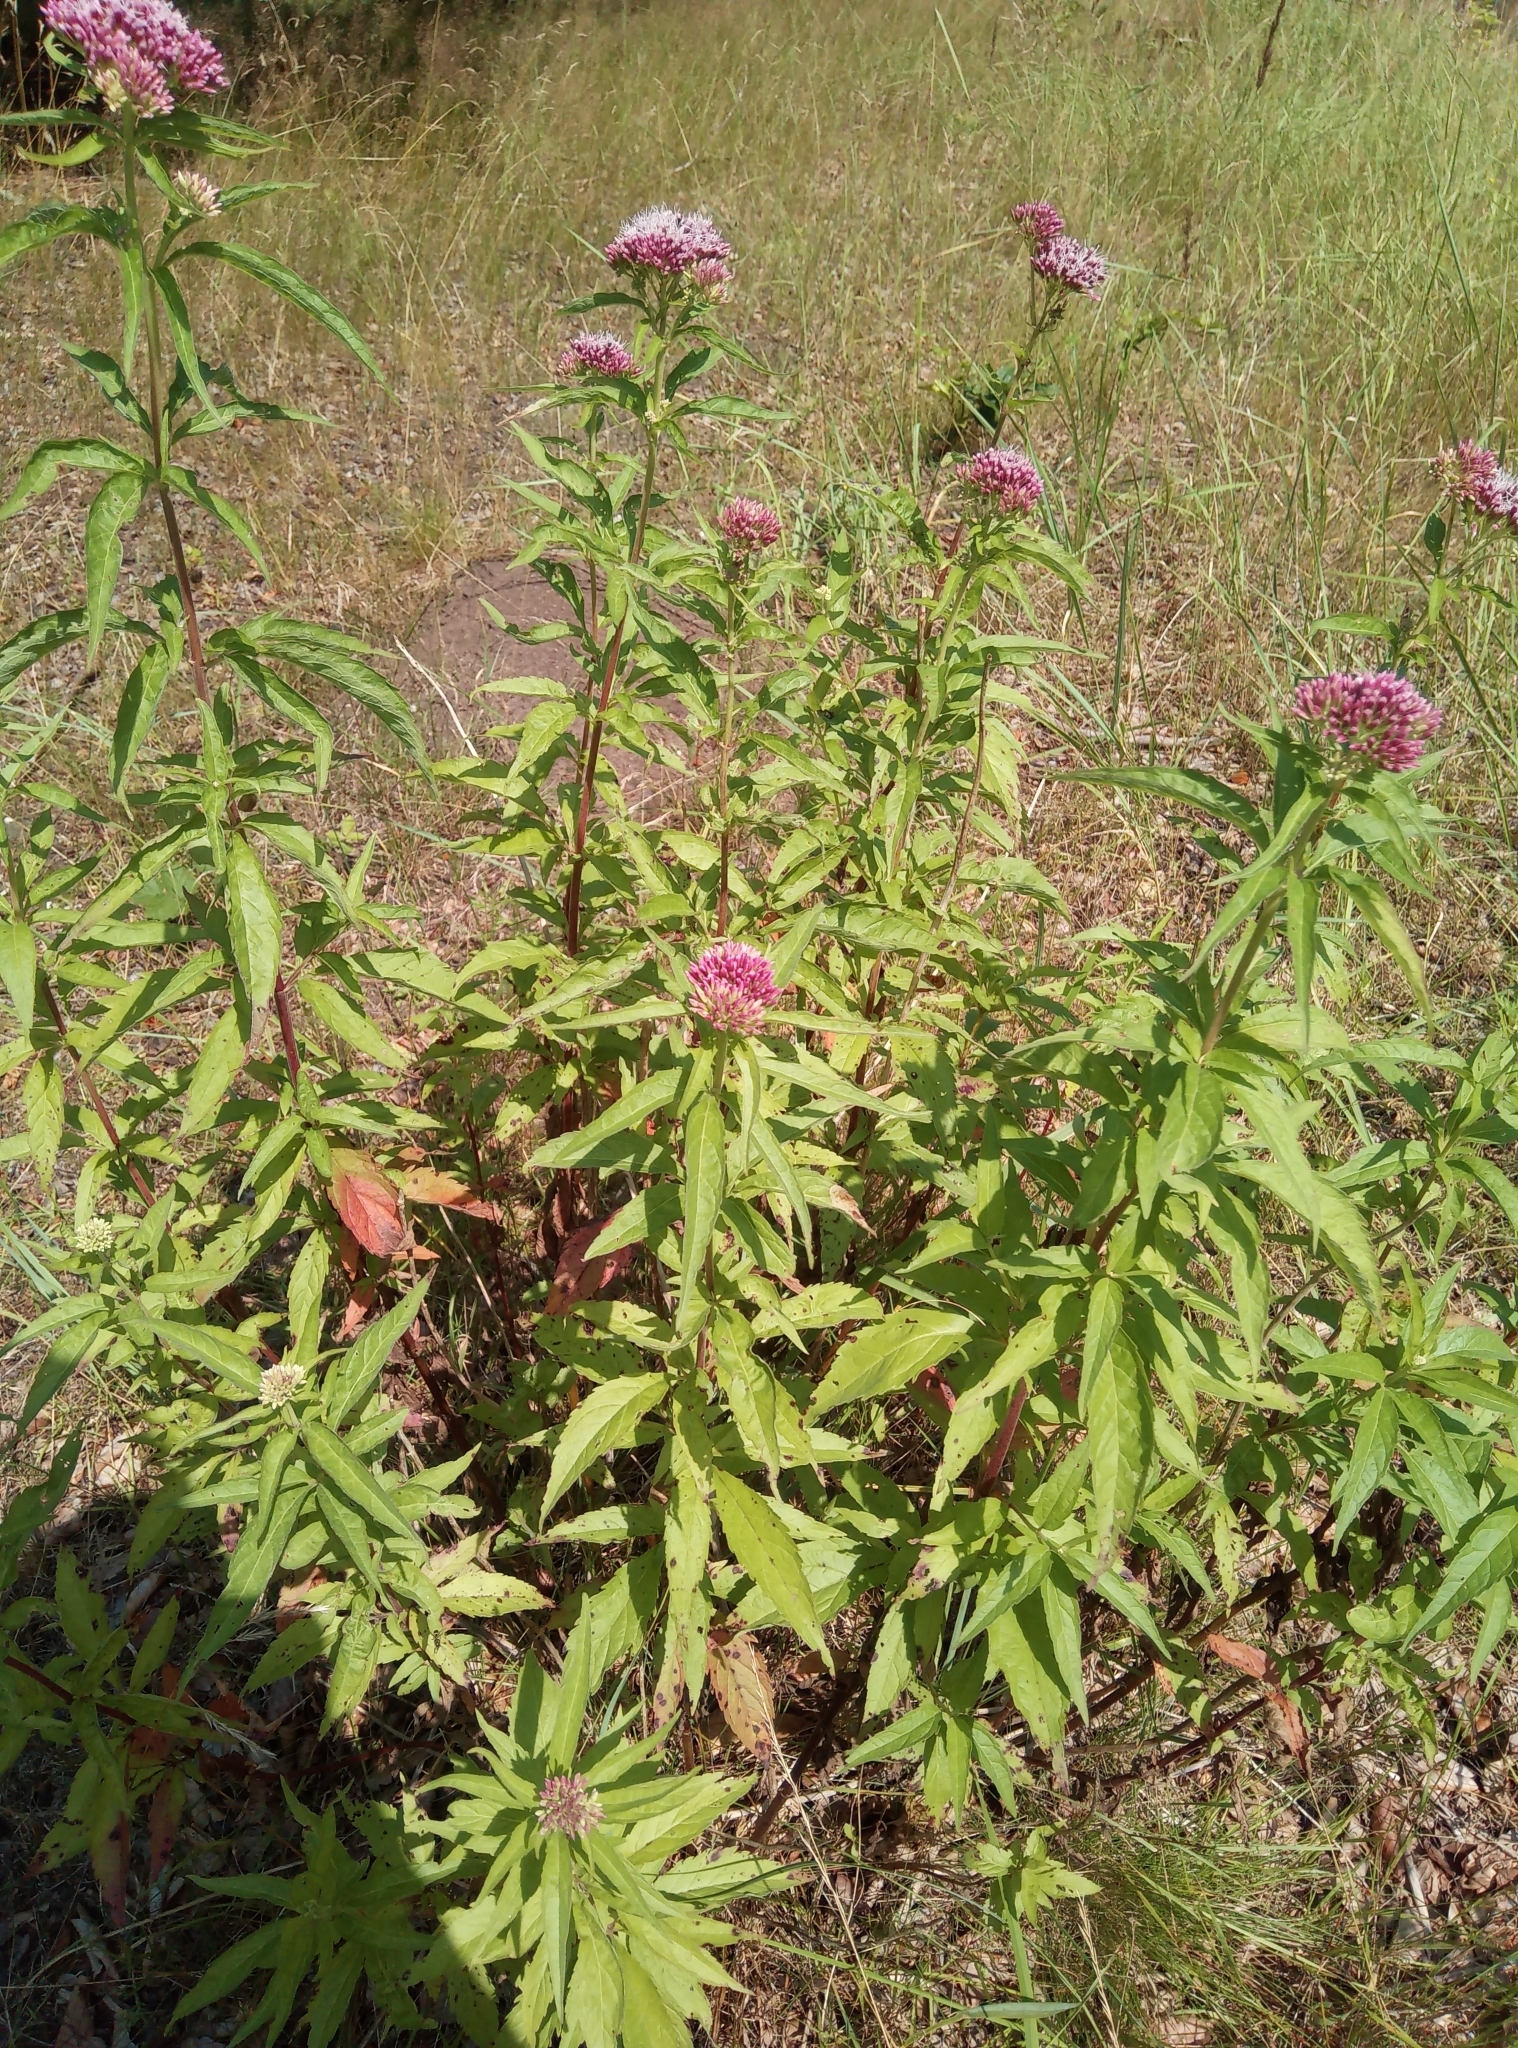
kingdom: Plantae
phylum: Tracheophyta
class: Magnoliopsida
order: Asterales
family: Asteraceae
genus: Eupatorium
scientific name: Eupatorium cannabinum
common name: Hemp-agrimony
